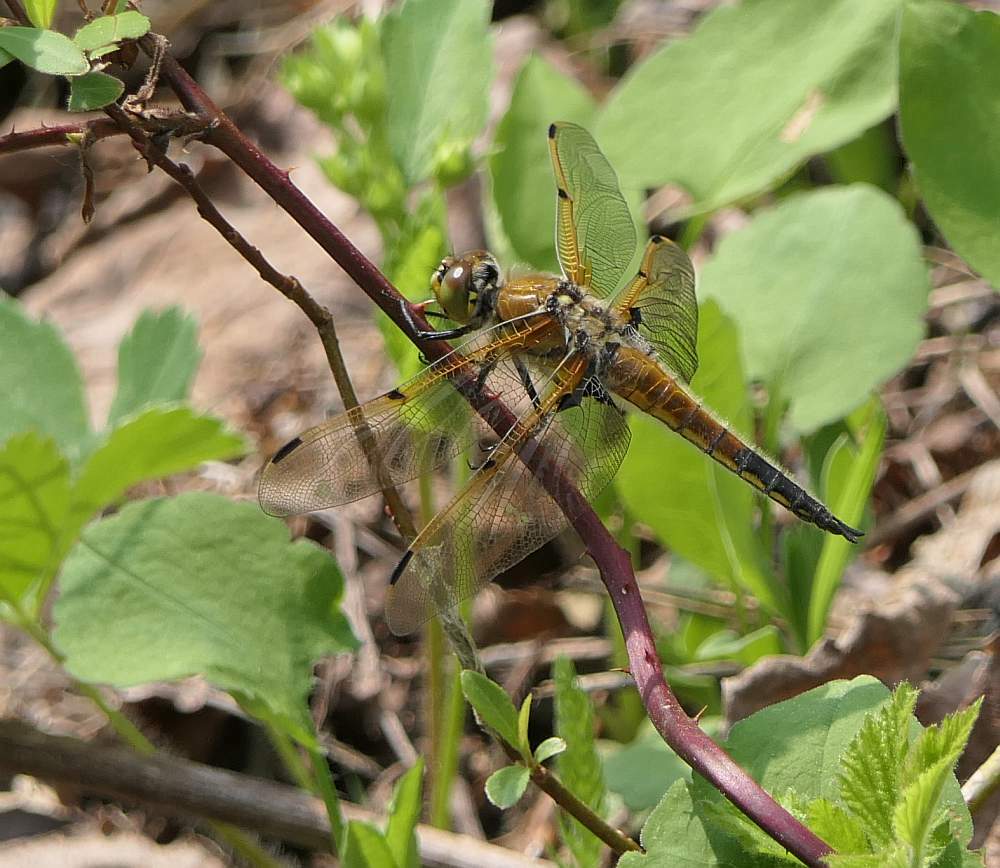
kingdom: Animalia
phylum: Arthropoda
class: Insecta
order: Odonata
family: Libellulidae
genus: Libellula
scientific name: Libellula quadrimaculata
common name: Four-spotted chaser
